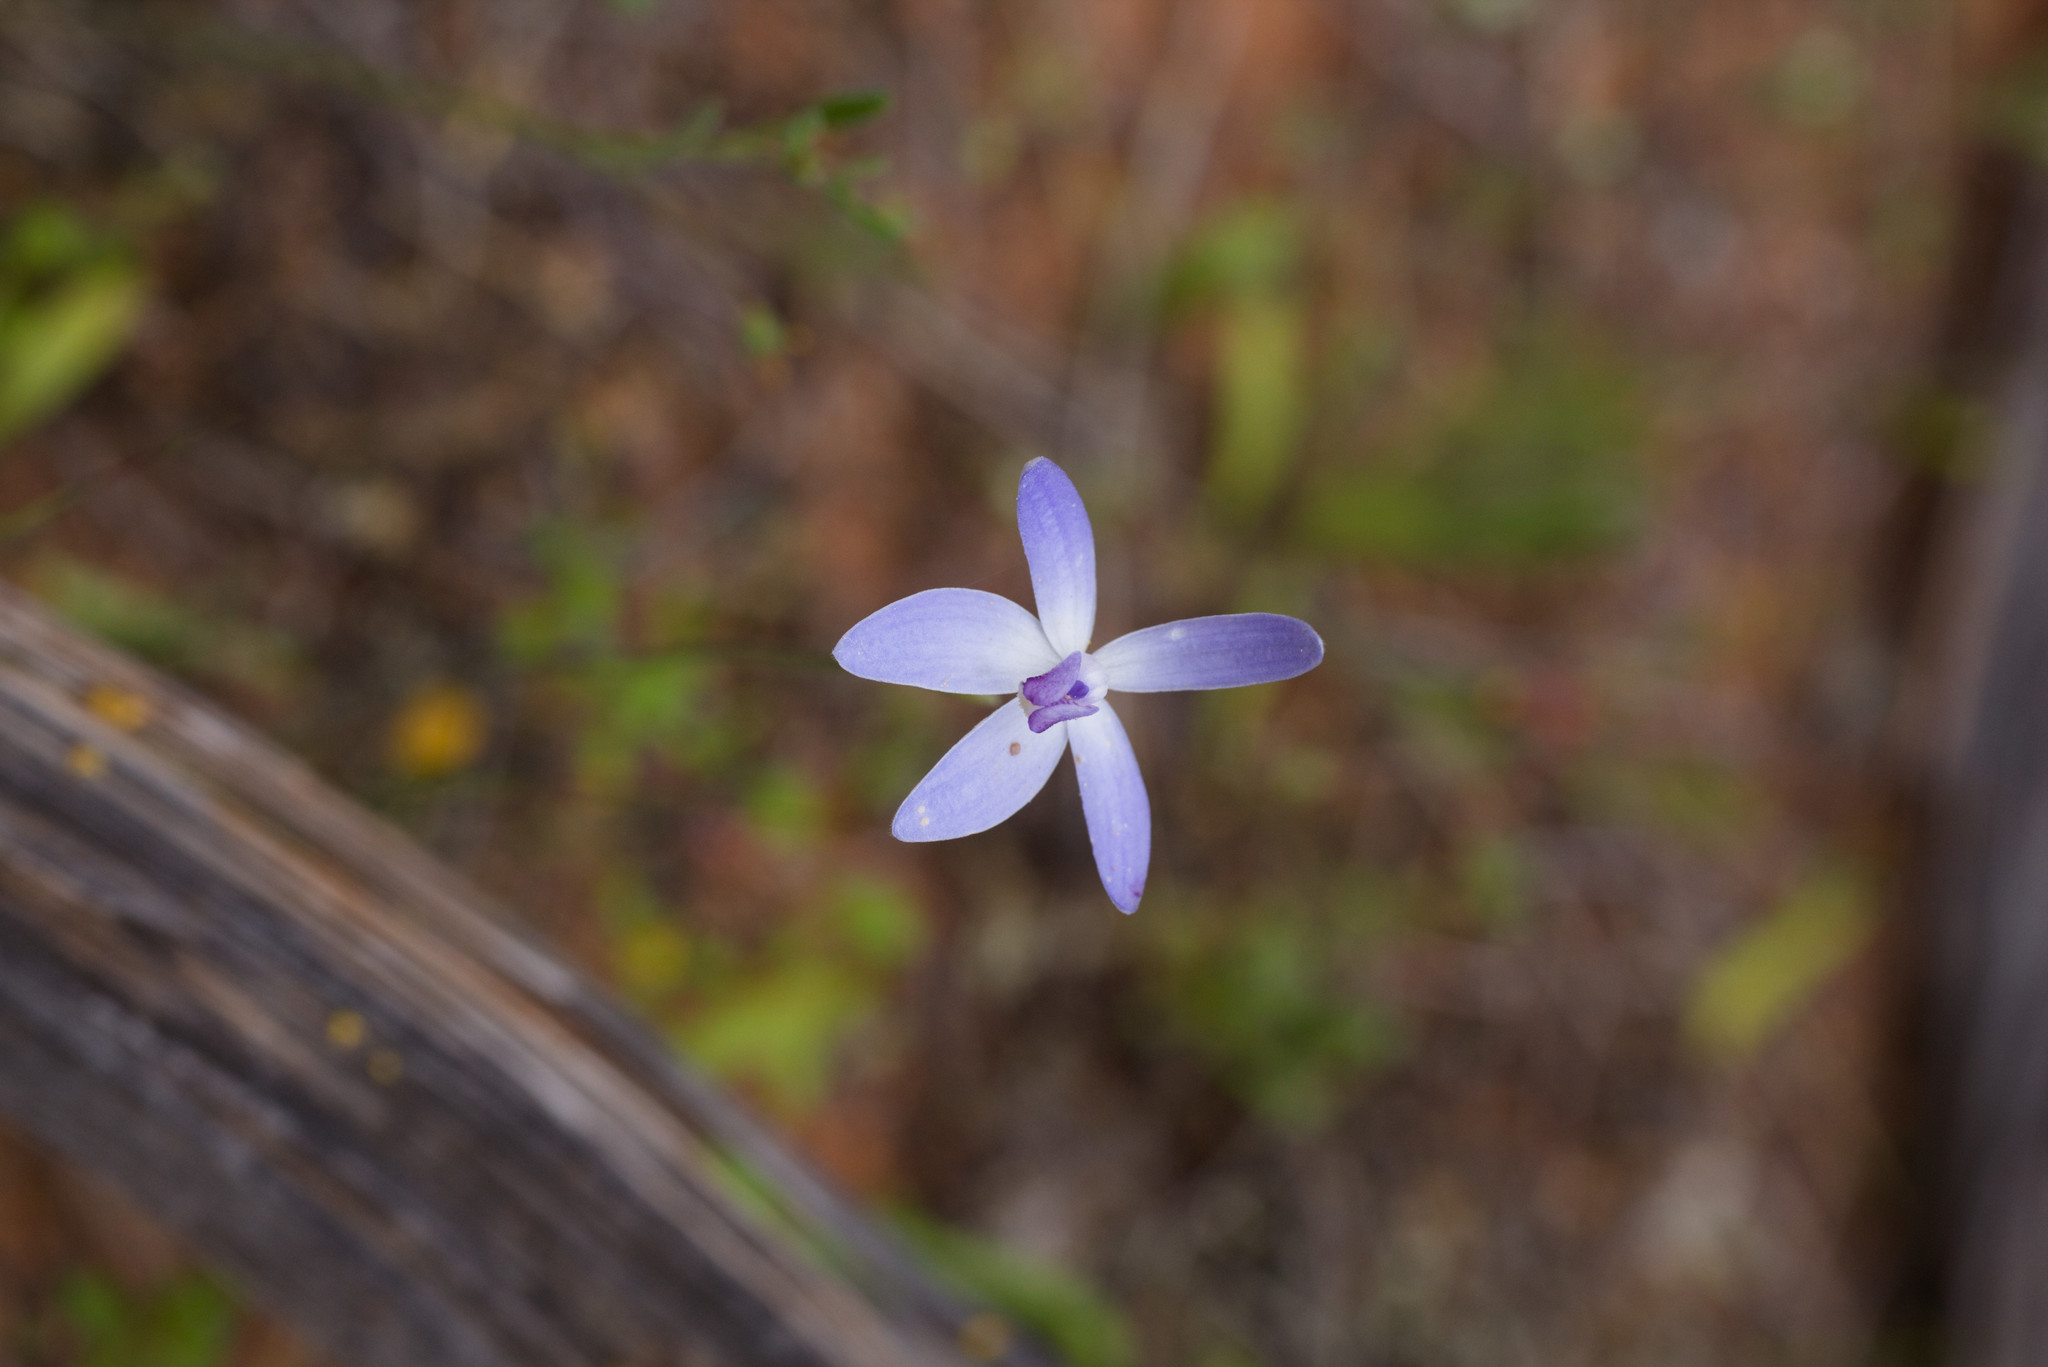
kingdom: Plantae
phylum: Tracheophyta
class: Liliopsida
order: Asparagales
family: Orchidaceae
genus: Caladenia
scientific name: Caladenia amplexans
